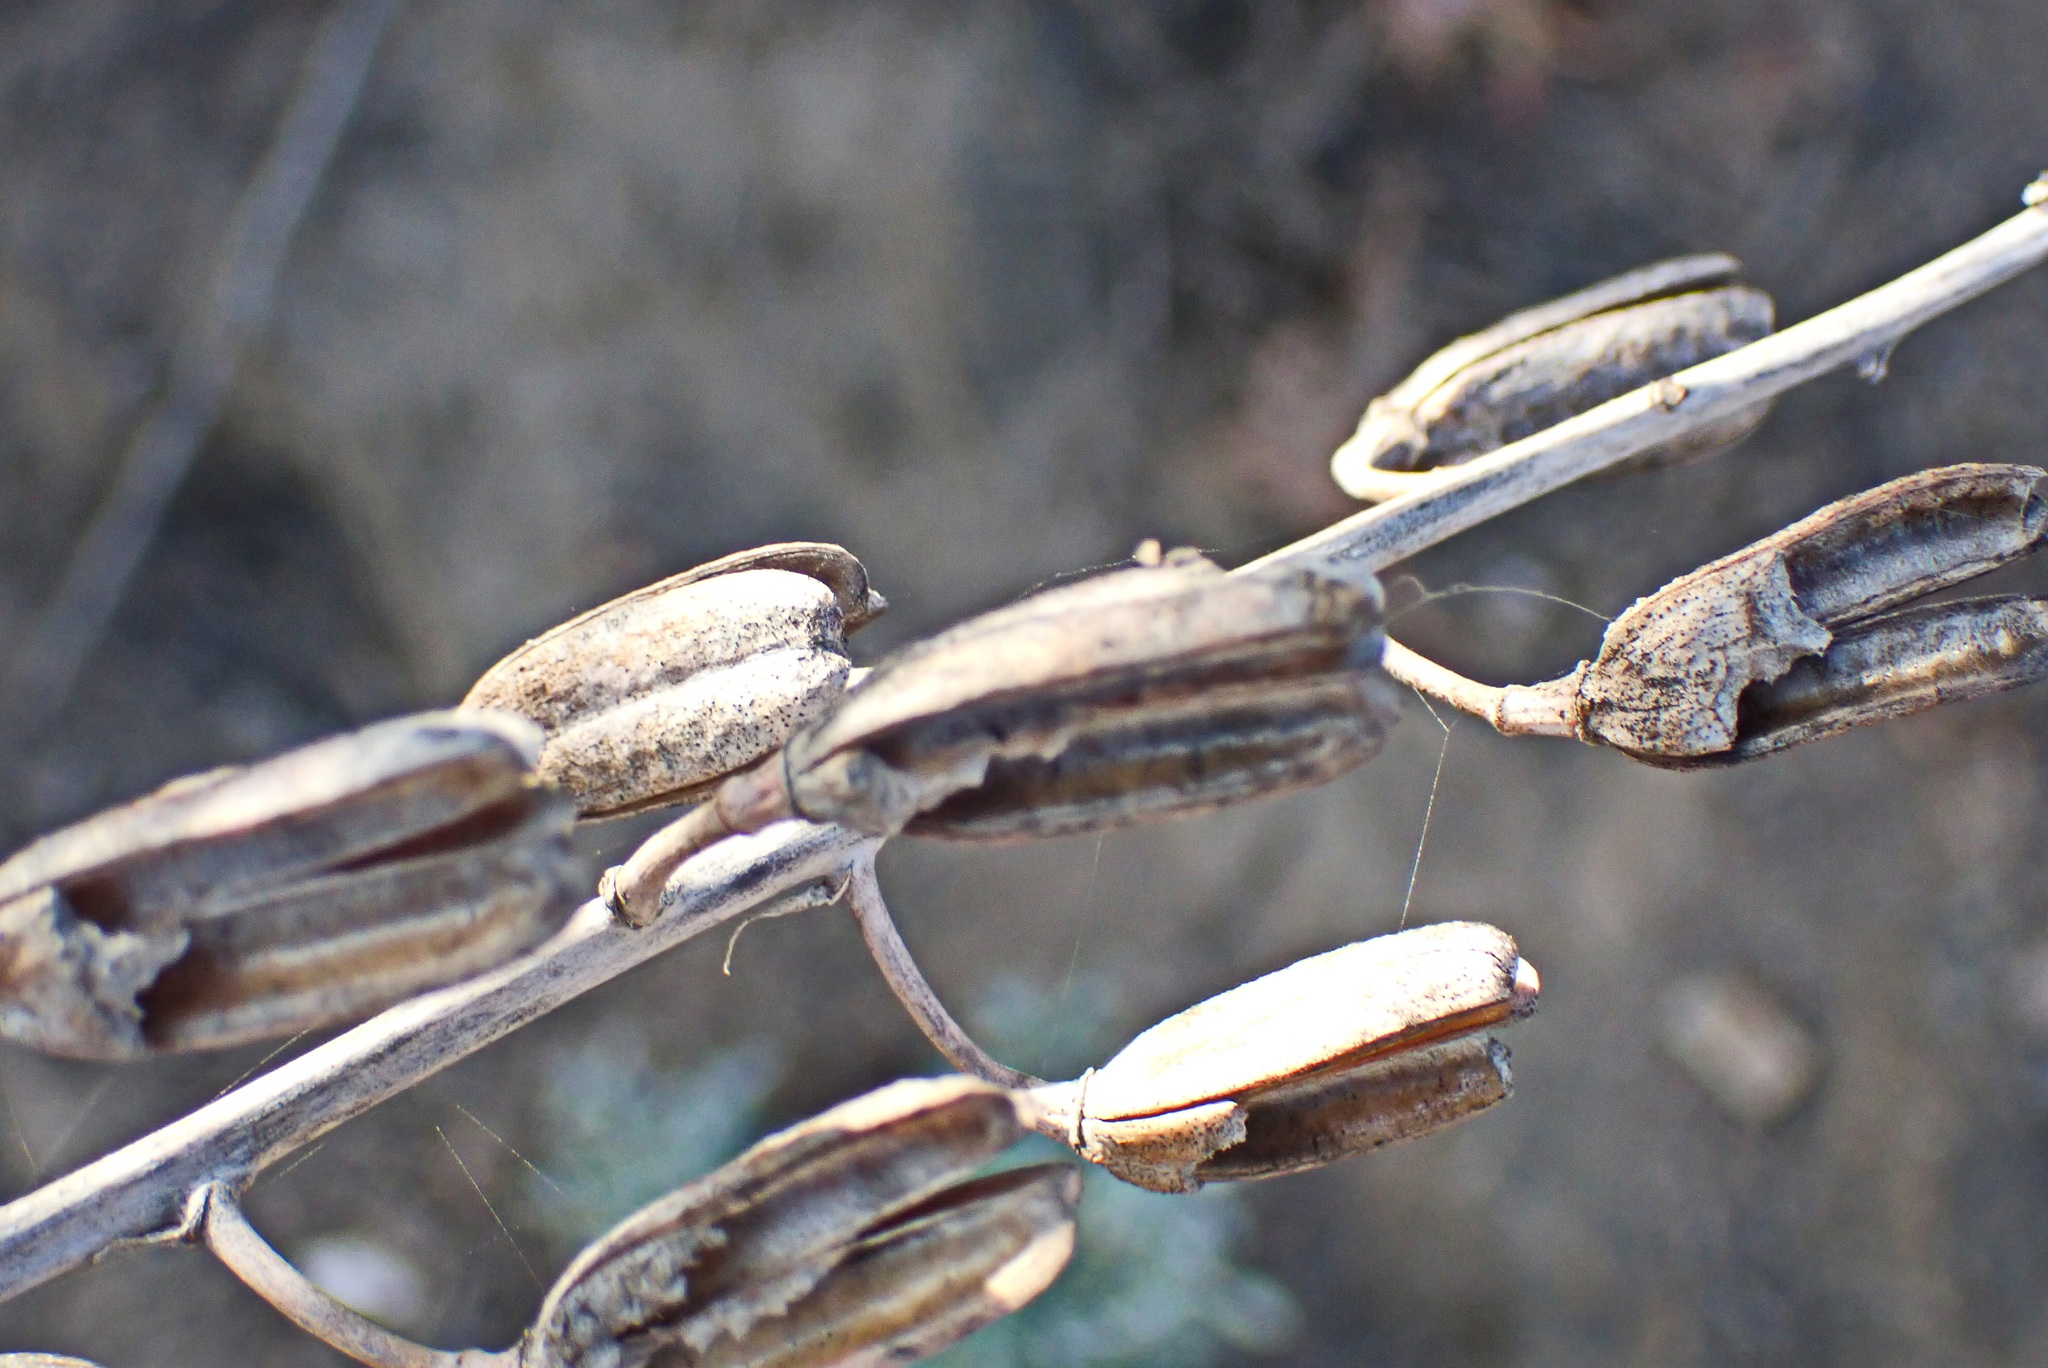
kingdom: Plantae
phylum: Tracheophyta
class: Liliopsida
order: Asparagales
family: Asphodelaceae
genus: Gasteria
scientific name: Gasteria brachyphylla
